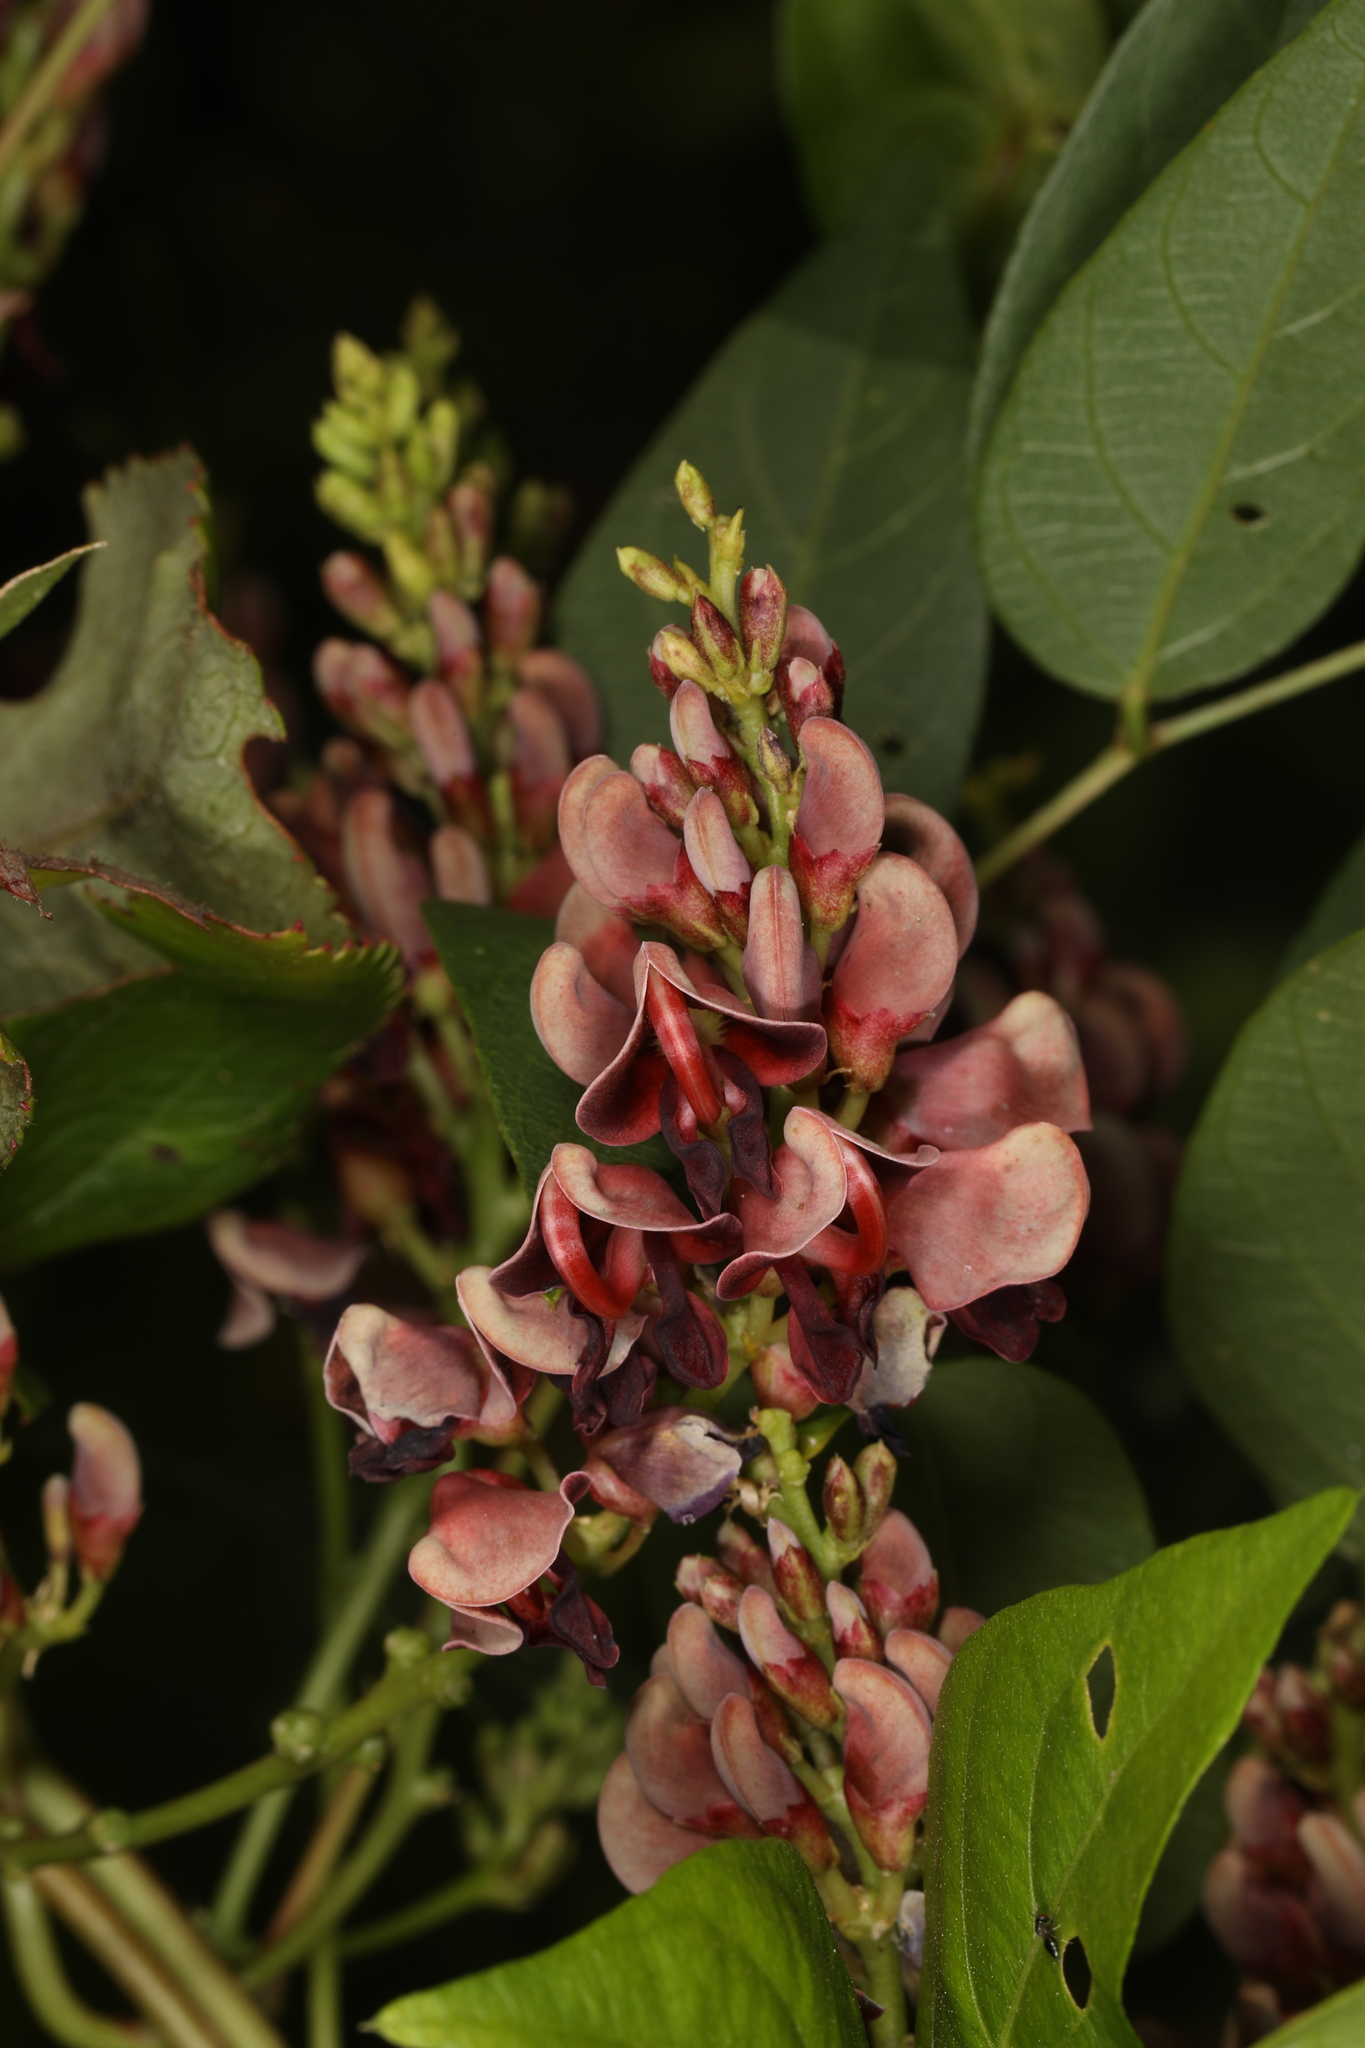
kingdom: Plantae
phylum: Tracheophyta
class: Magnoliopsida
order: Fabales
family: Fabaceae
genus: Apios
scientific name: Apios americana
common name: American potato-bean
